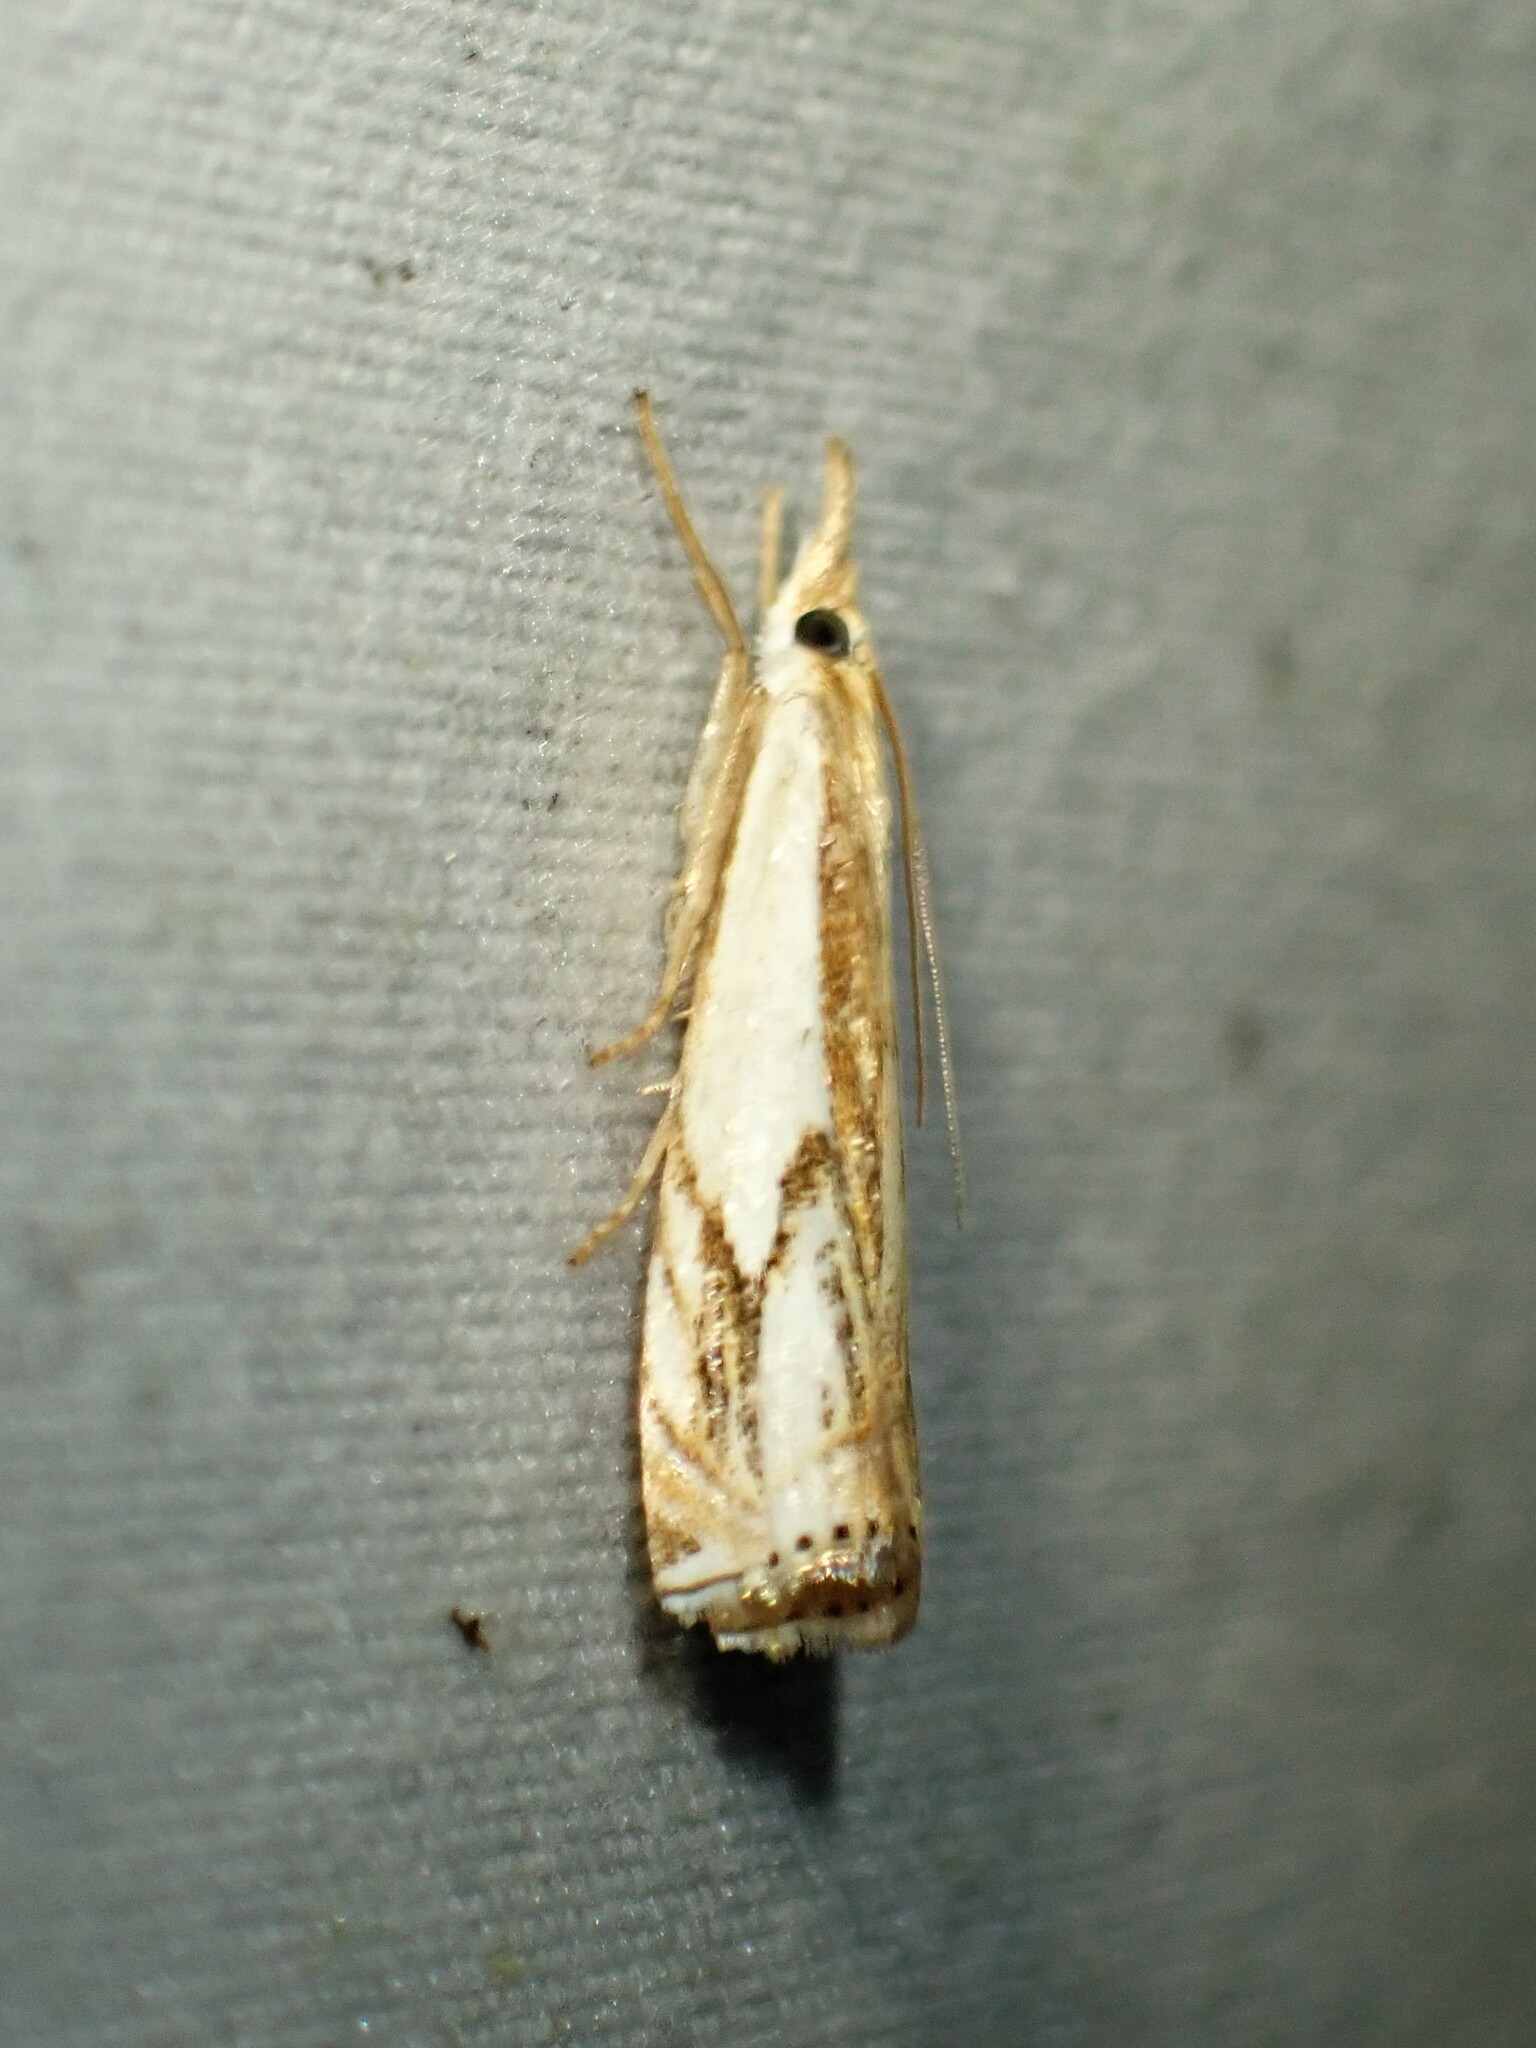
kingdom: Animalia
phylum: Arthropoda
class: Insecta
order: Lepidoptera
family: Crambidae
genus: Crambus
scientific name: Crambus agitatellus
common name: Double-banded grass-veneer
